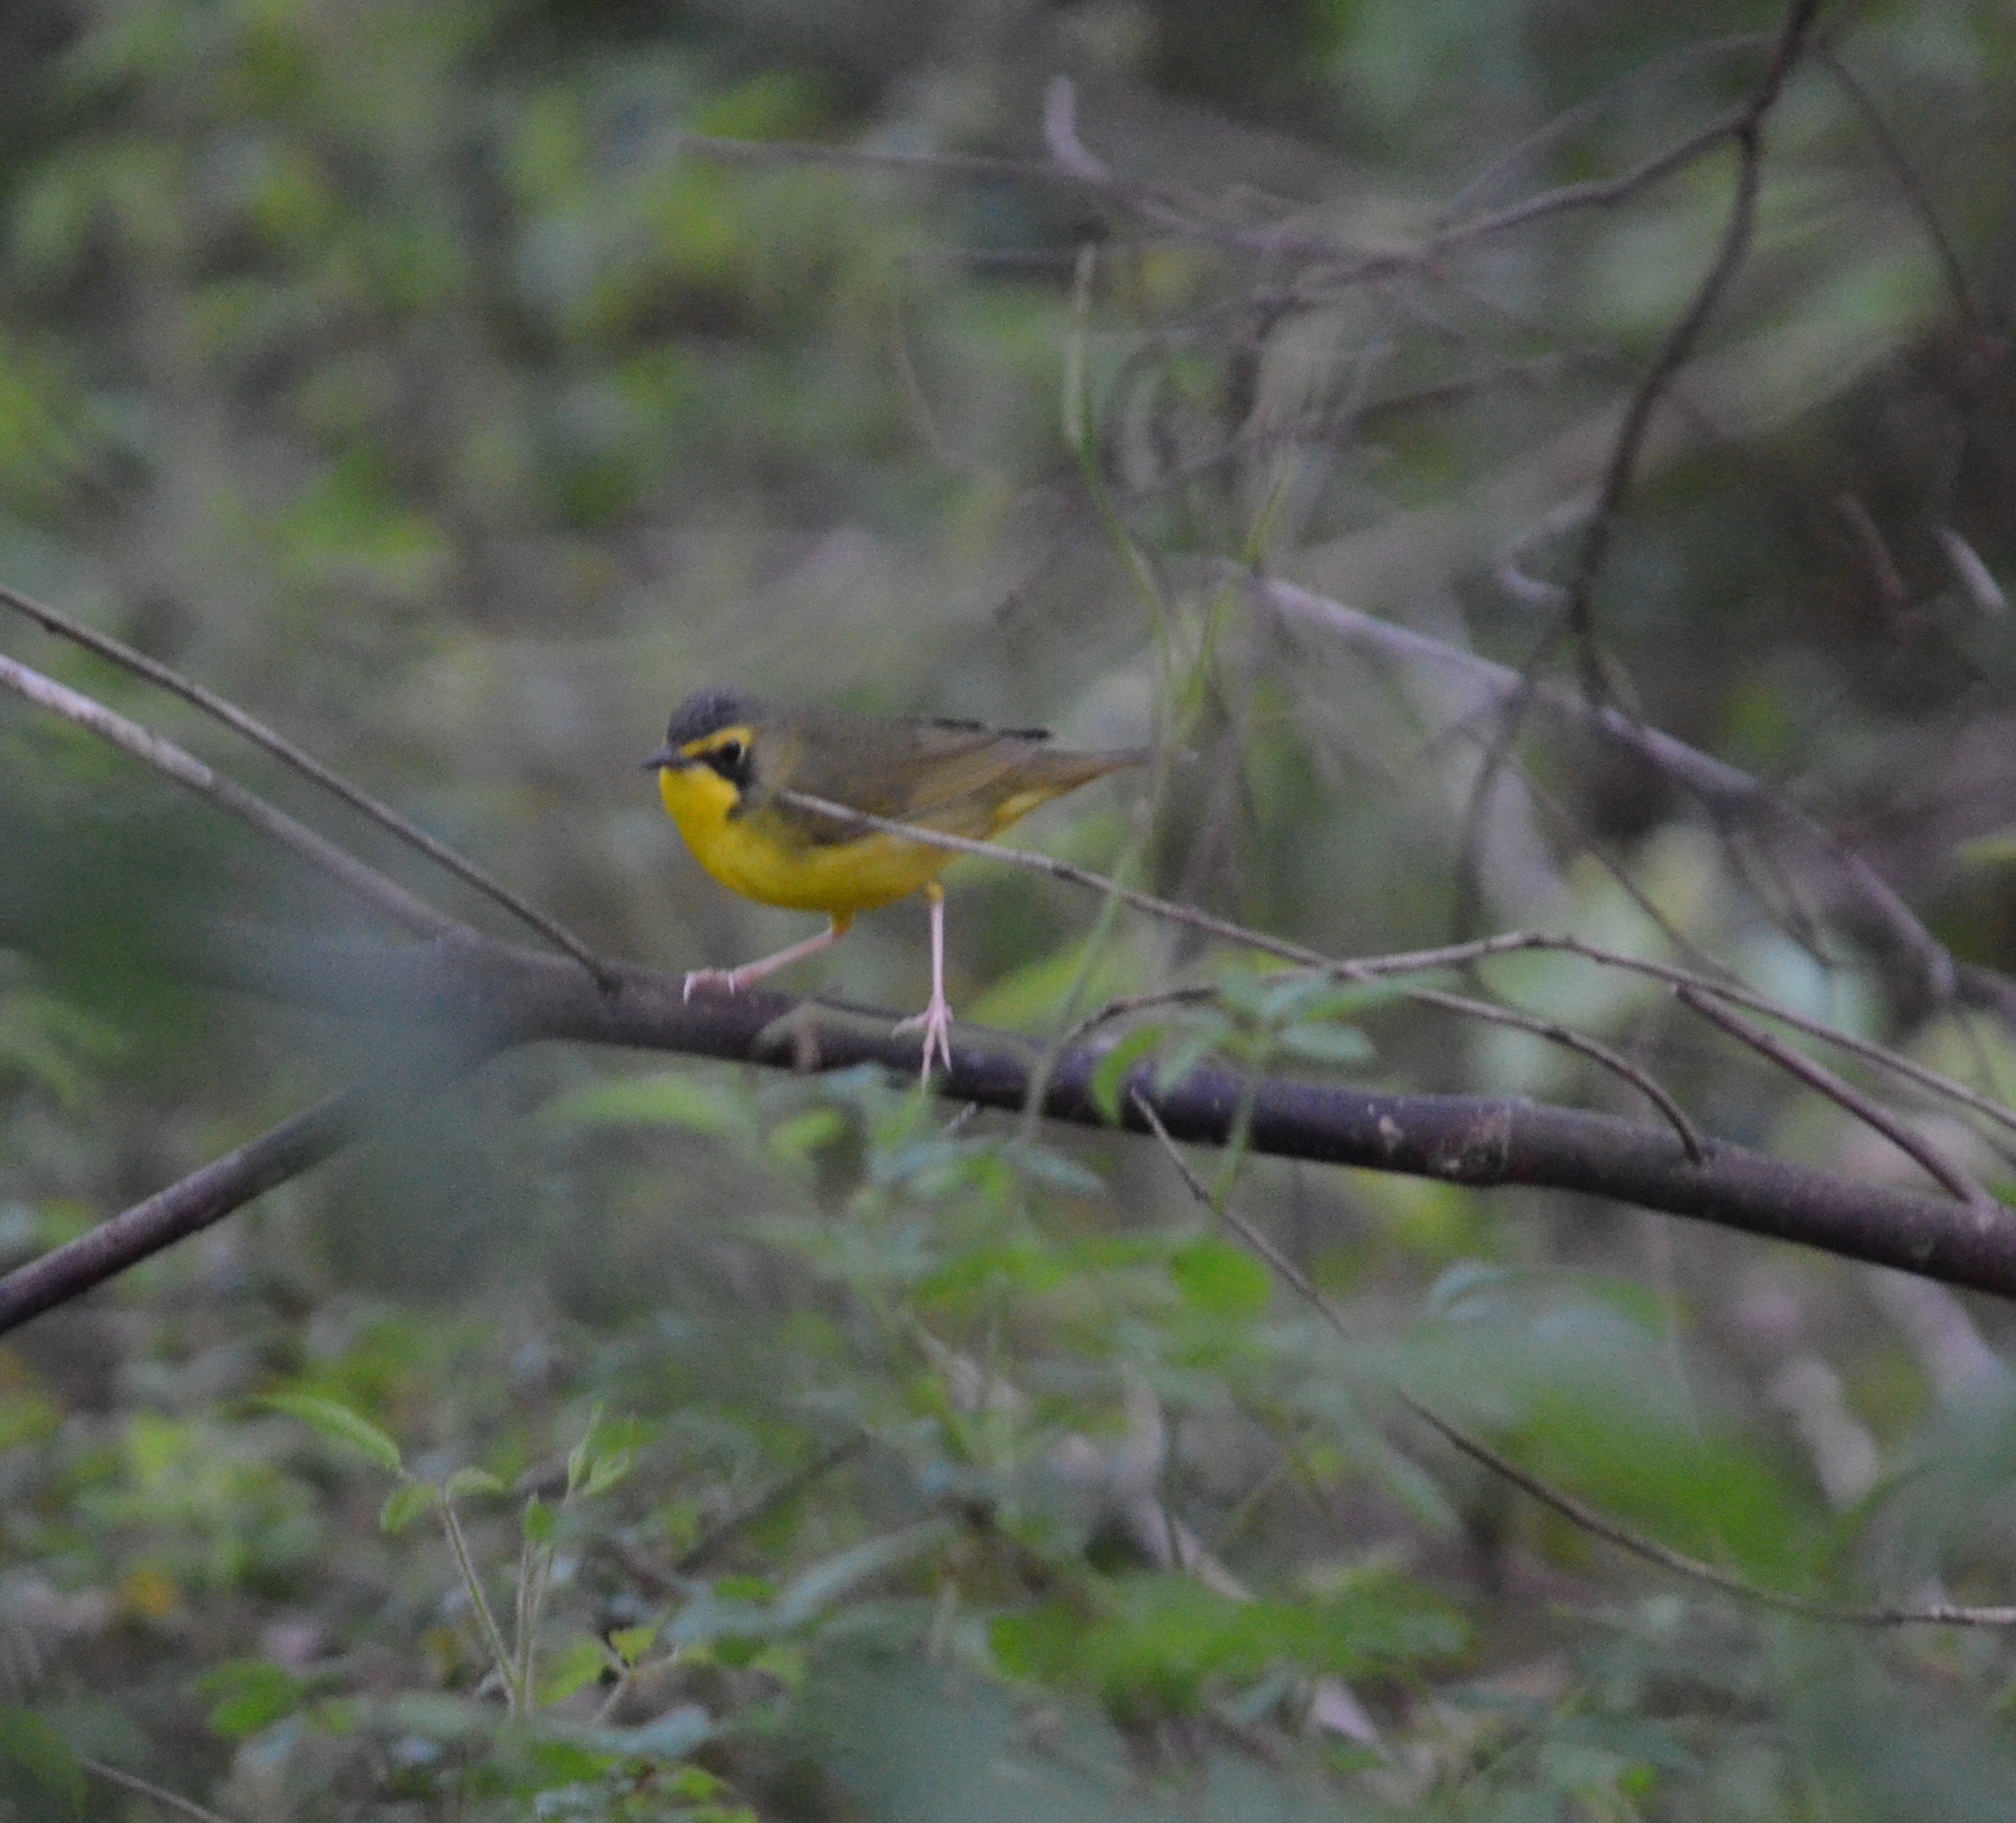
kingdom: Animalia
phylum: Chordata
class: Aves
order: Passeriformes
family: Parulidae
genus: Geothlypis
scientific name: Geothlypis formosa
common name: Kentucky warbler
